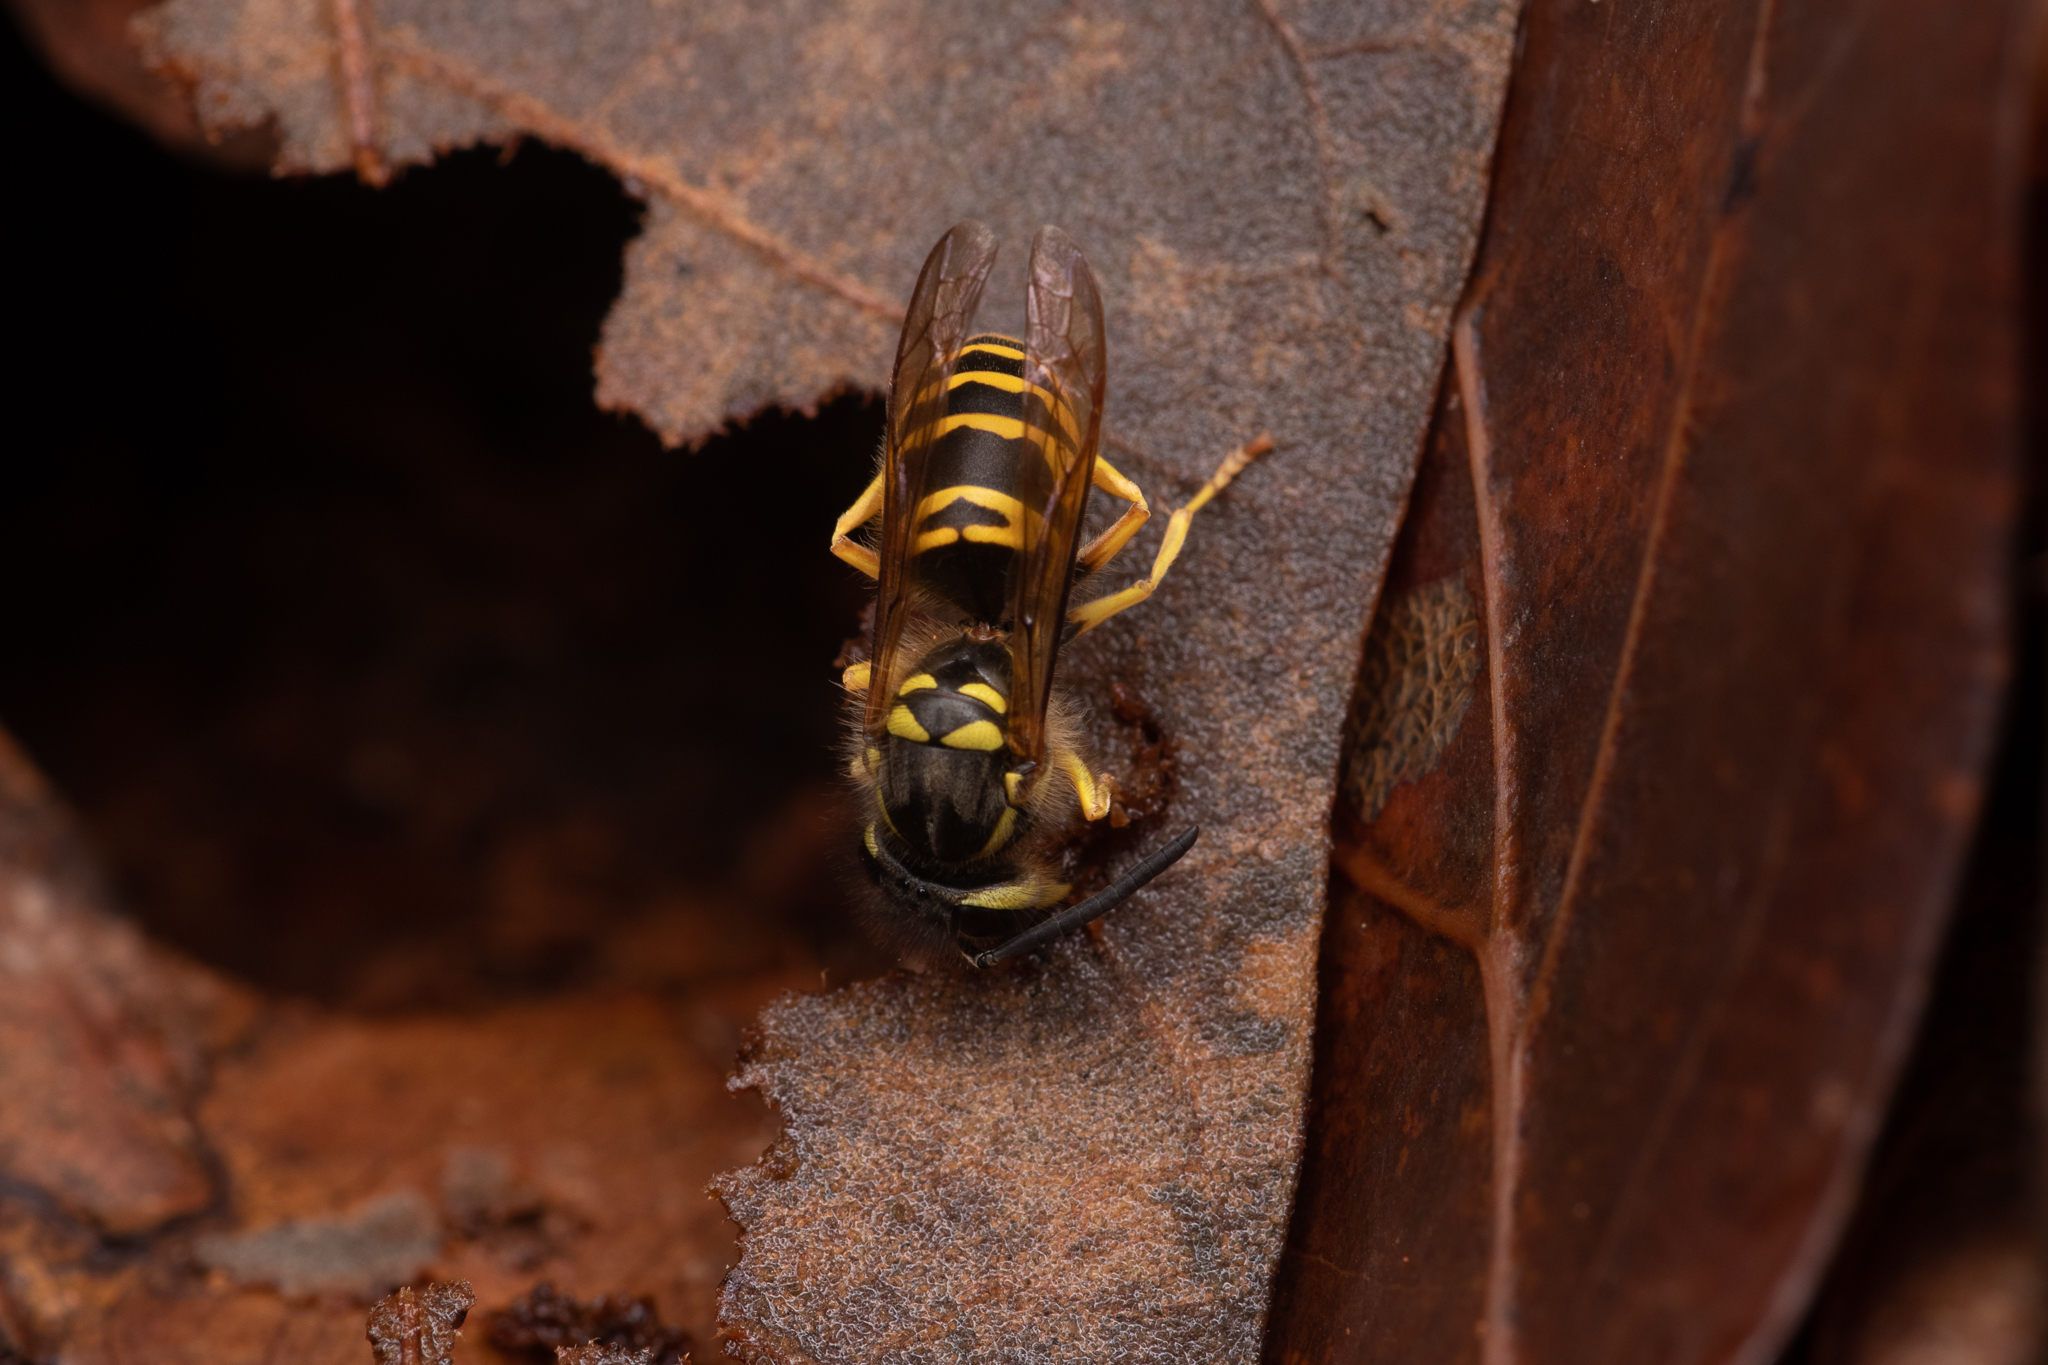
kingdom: Animalia
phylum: Arthropoda
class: Insecta
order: Hymenoptera
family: Vespidae
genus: Vespula
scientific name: Vespula maculifrons
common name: Eastern yellowjacket
